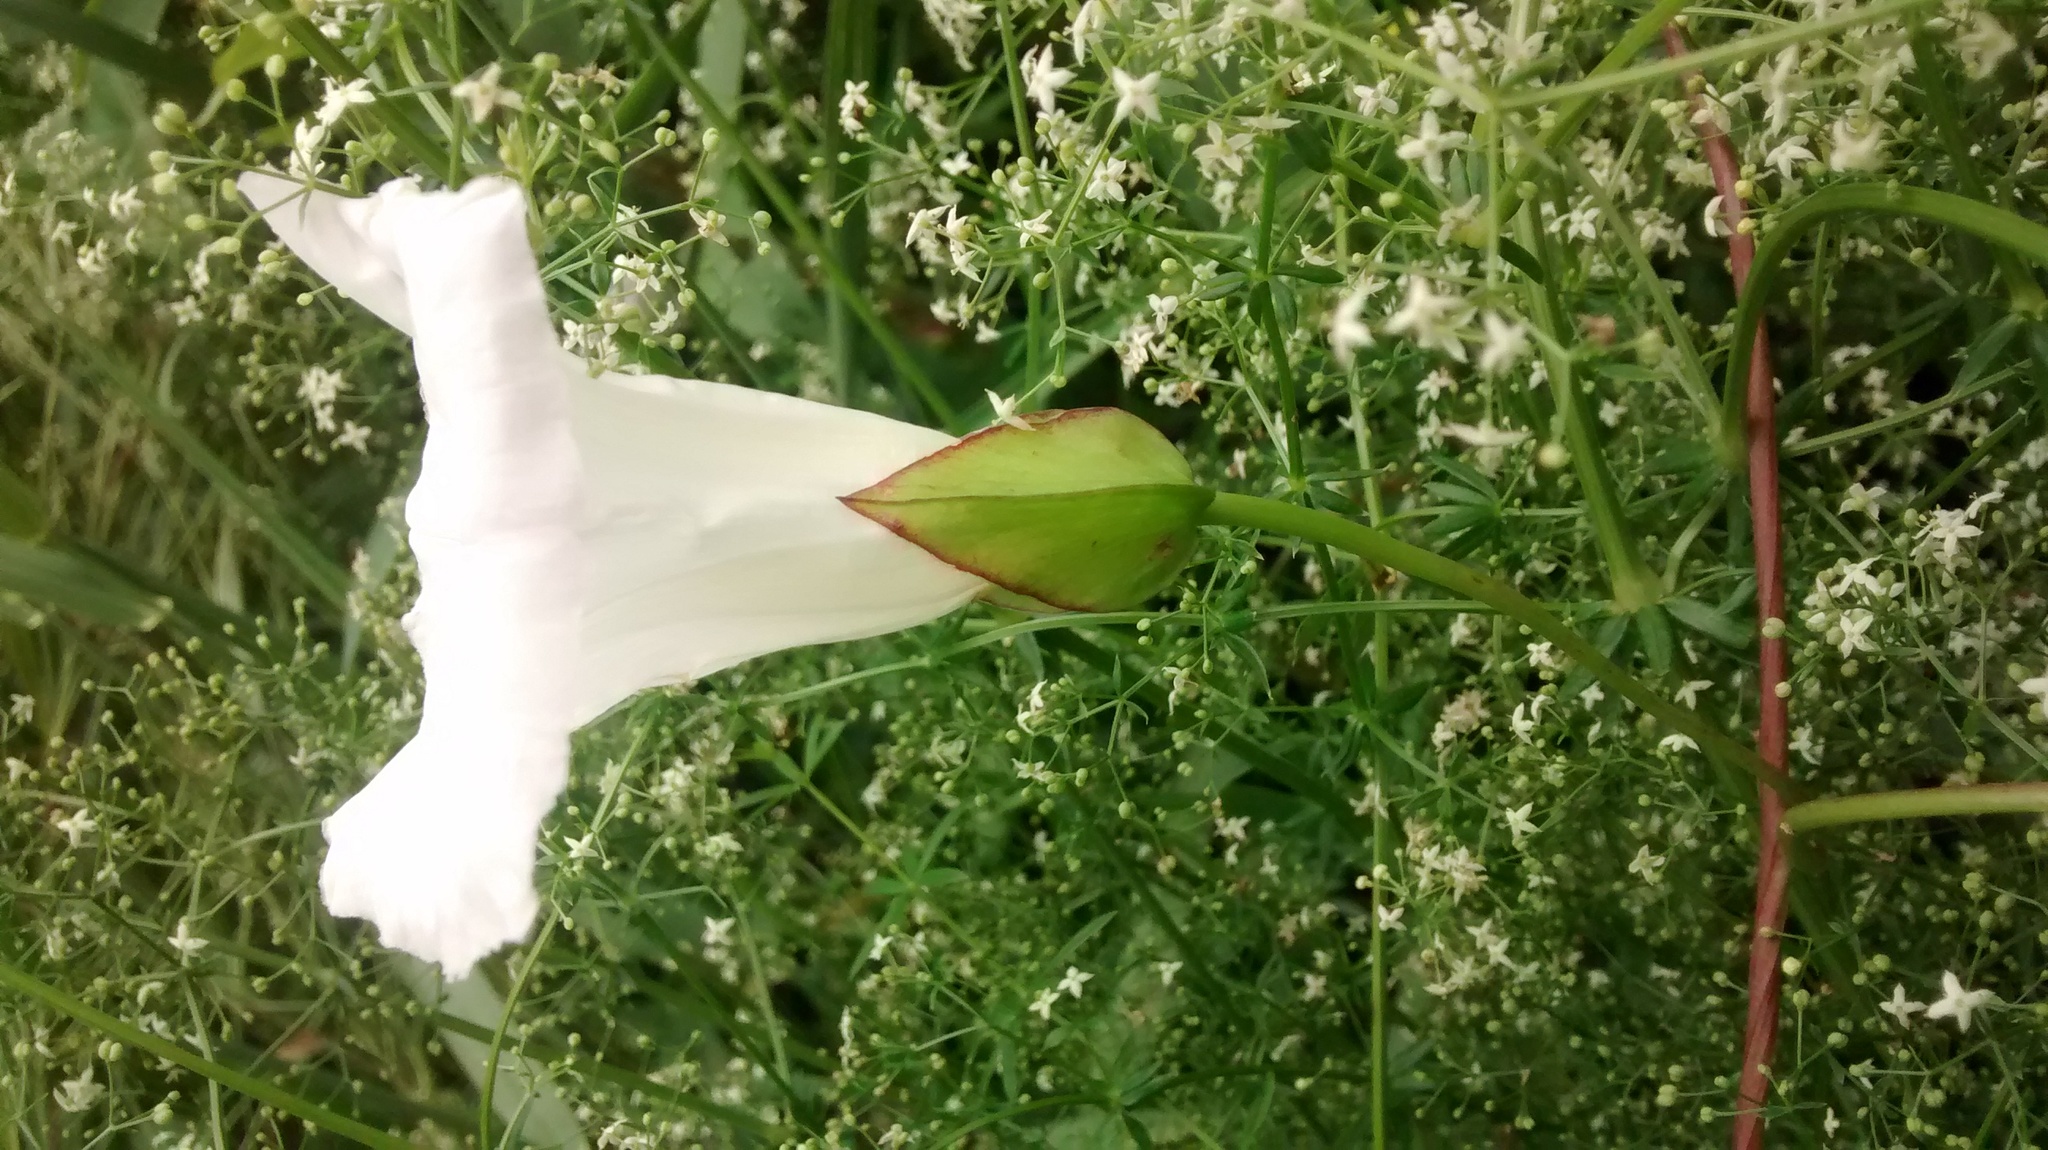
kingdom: Plantae
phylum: Tracheophyta
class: Magnoliopsida
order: Solanales
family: Convolvulaceae
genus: Calystegia
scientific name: Calystegia sepium
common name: Hedge bindweed
